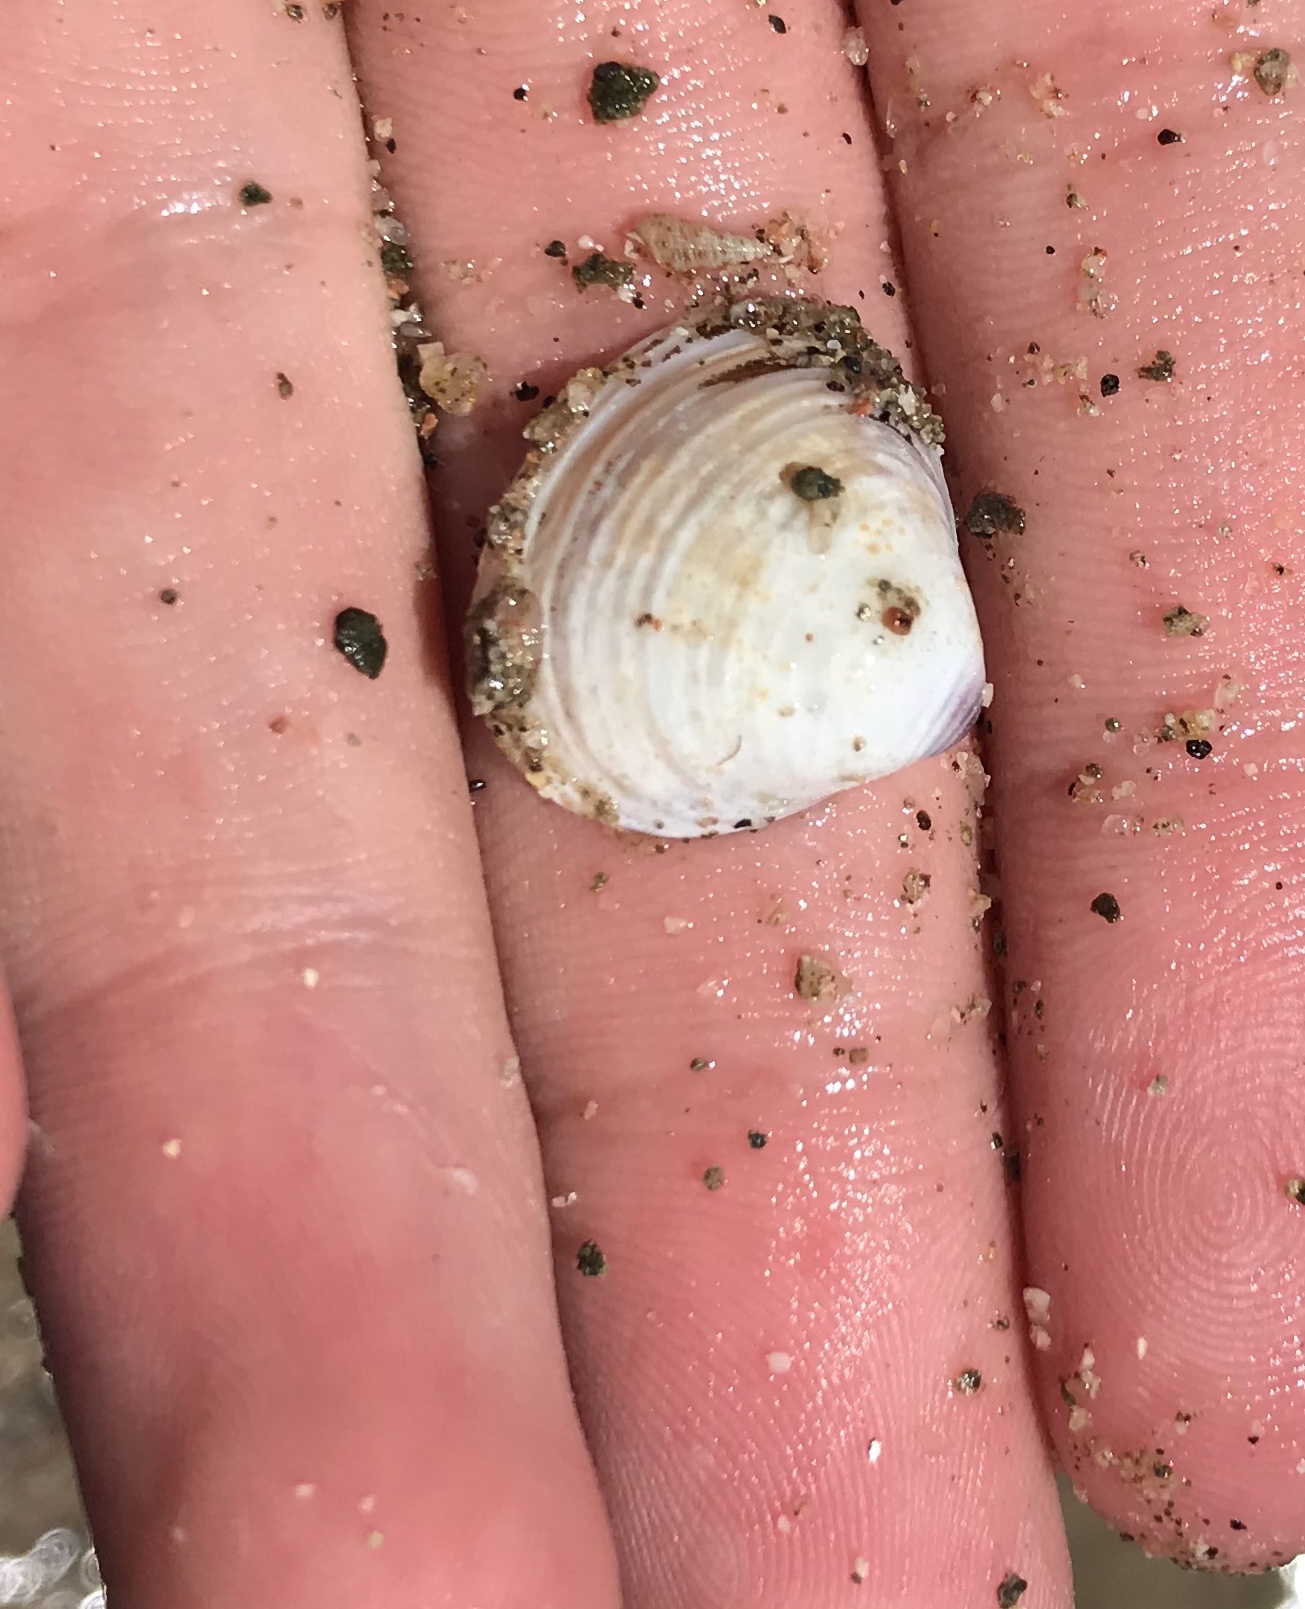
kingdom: Animalia
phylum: Mollusca
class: Bivalvia
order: Venerida
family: Cyrenidae
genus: Corbicula
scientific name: Corbicula fluminea
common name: Asian clam
